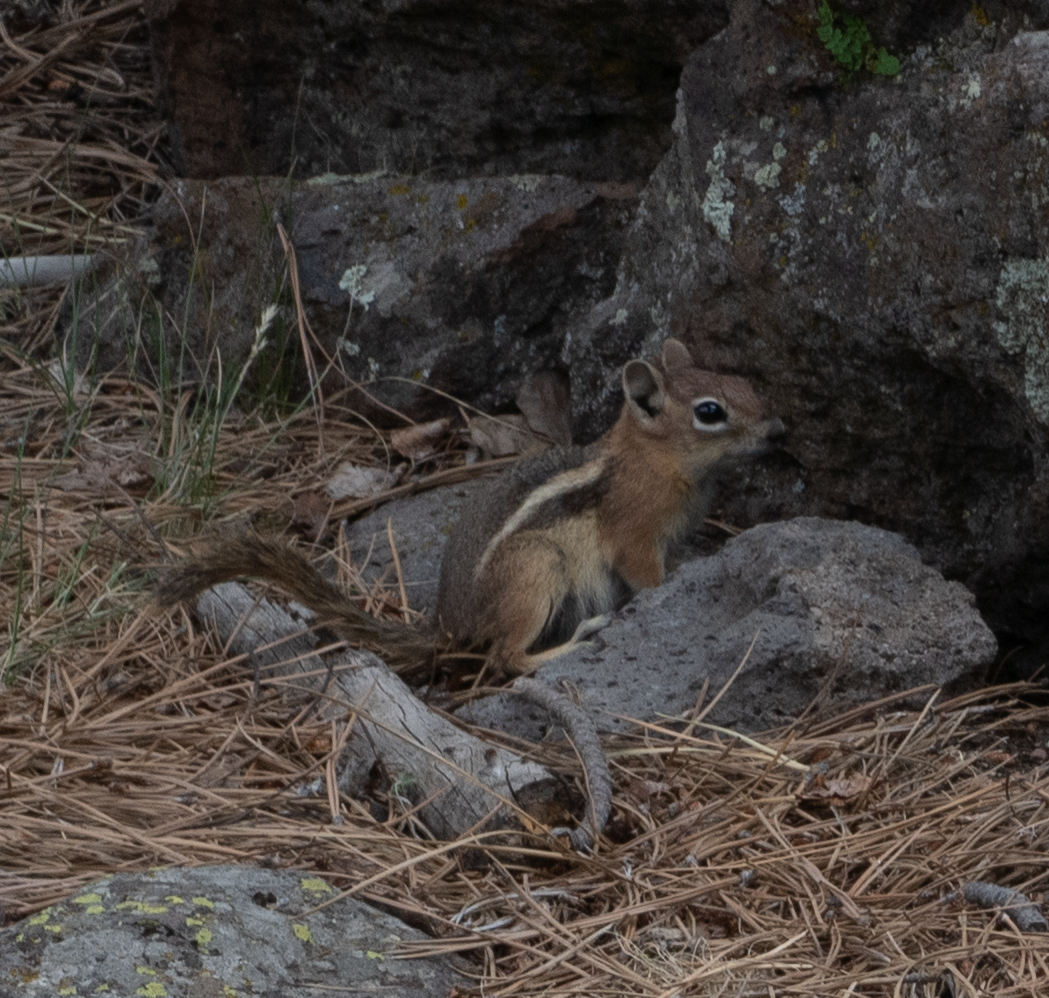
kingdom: Animalia
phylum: Chordata
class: Mammalia
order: Rodentia
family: Sciuridae
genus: Callospermophilus
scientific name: Callospermophilus lateralis
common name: Golden-mantled ground squirrel
